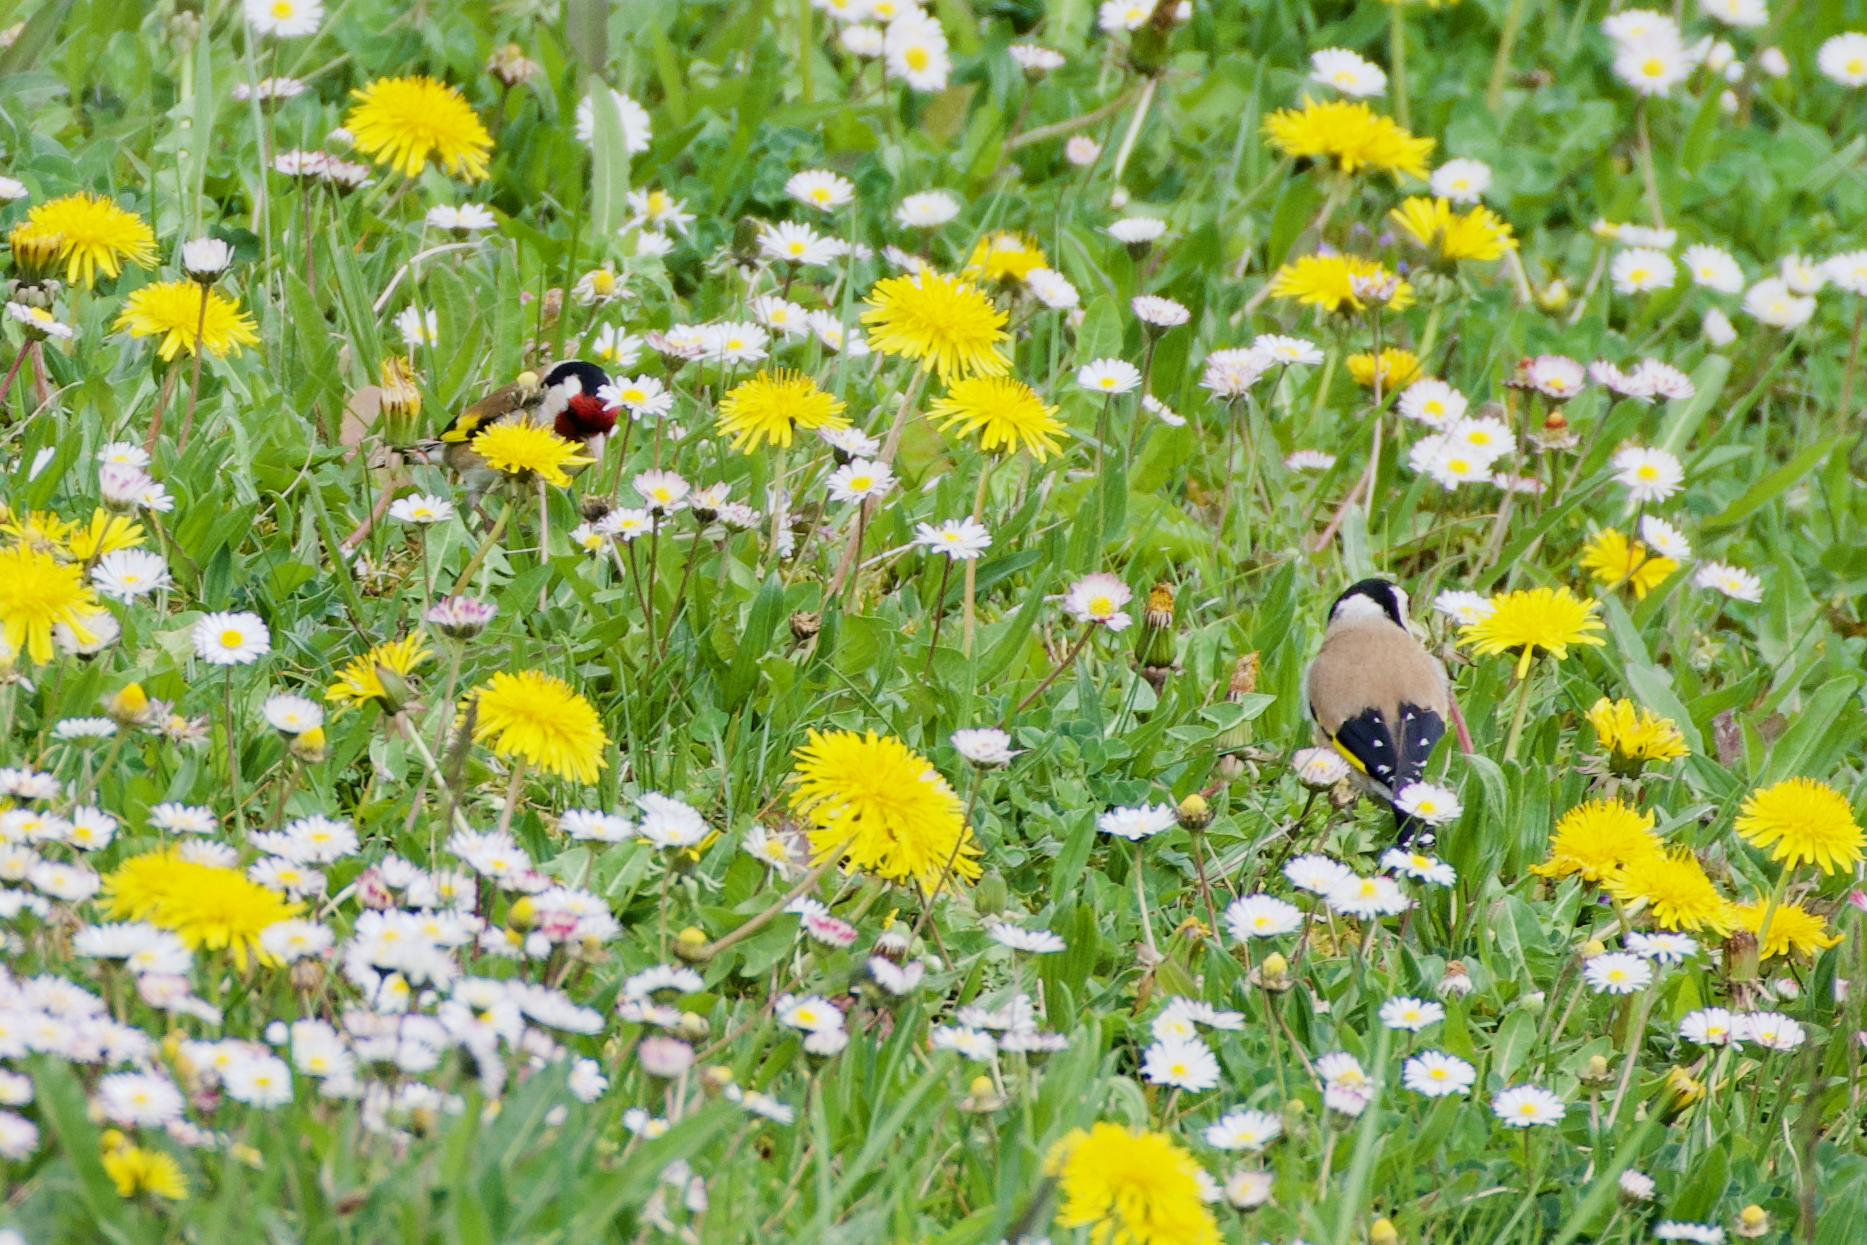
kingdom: Animalia
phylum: Chordata
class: Aves
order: Passeriformes
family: Fringillidae
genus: Carduelis
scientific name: Carduelis carduelis
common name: European goldfinch
